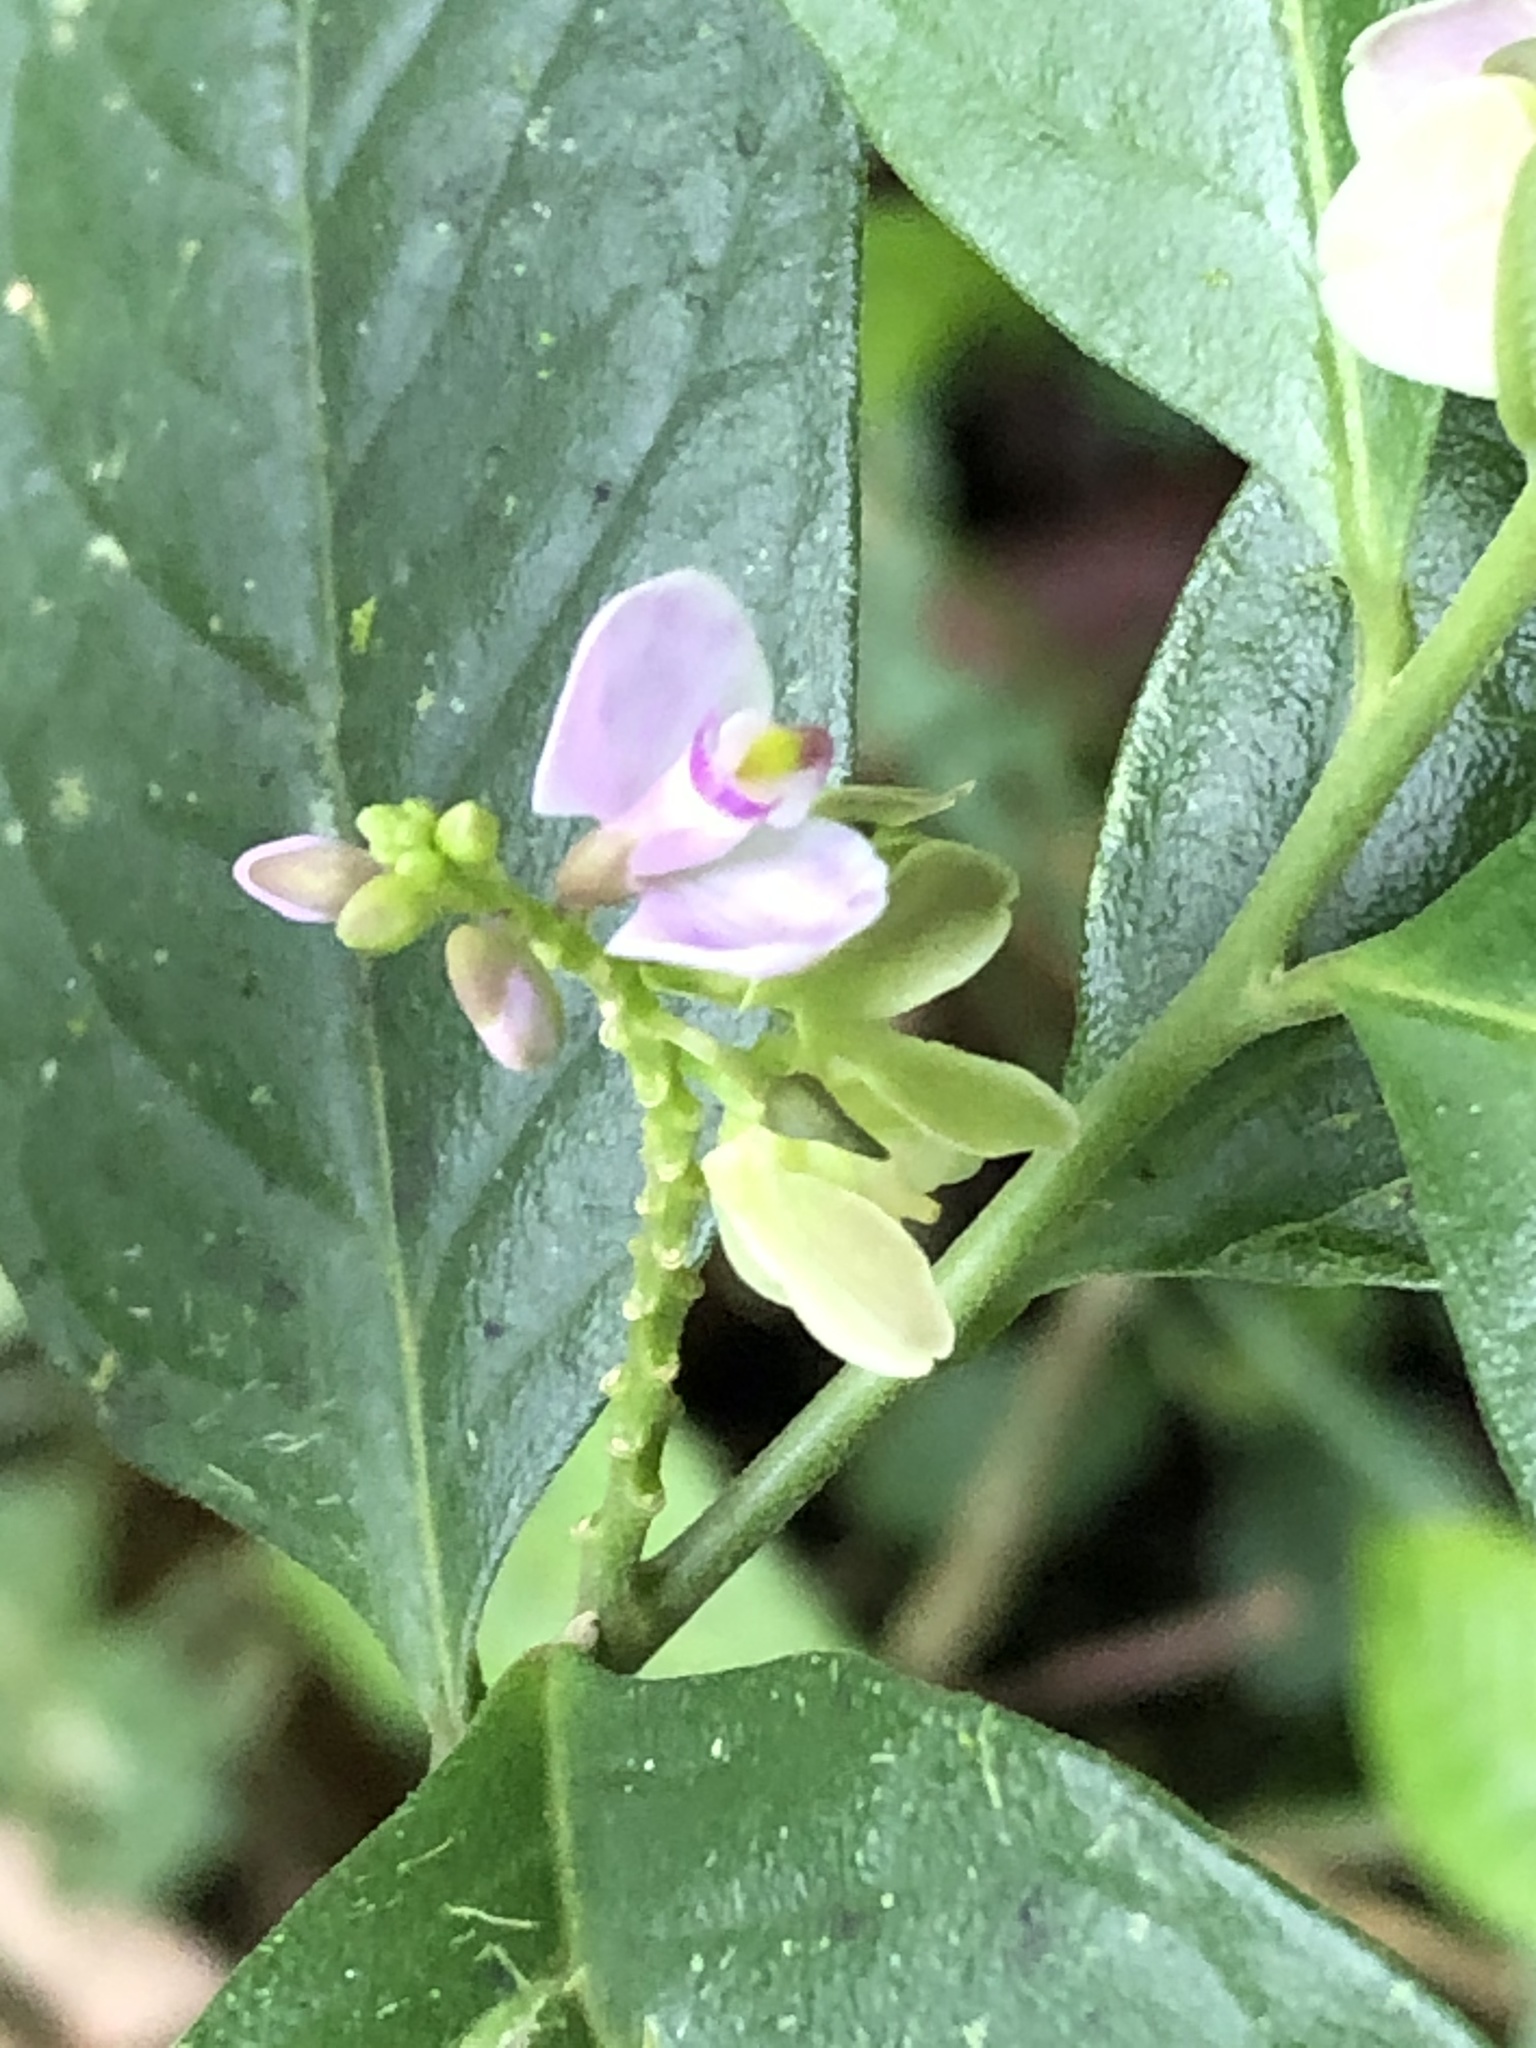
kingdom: Plantae
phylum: Tracheophyta
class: Magnoliopsida
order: Fabales
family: Polygalaceae
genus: Asemeia
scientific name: Asemeia acuminata
